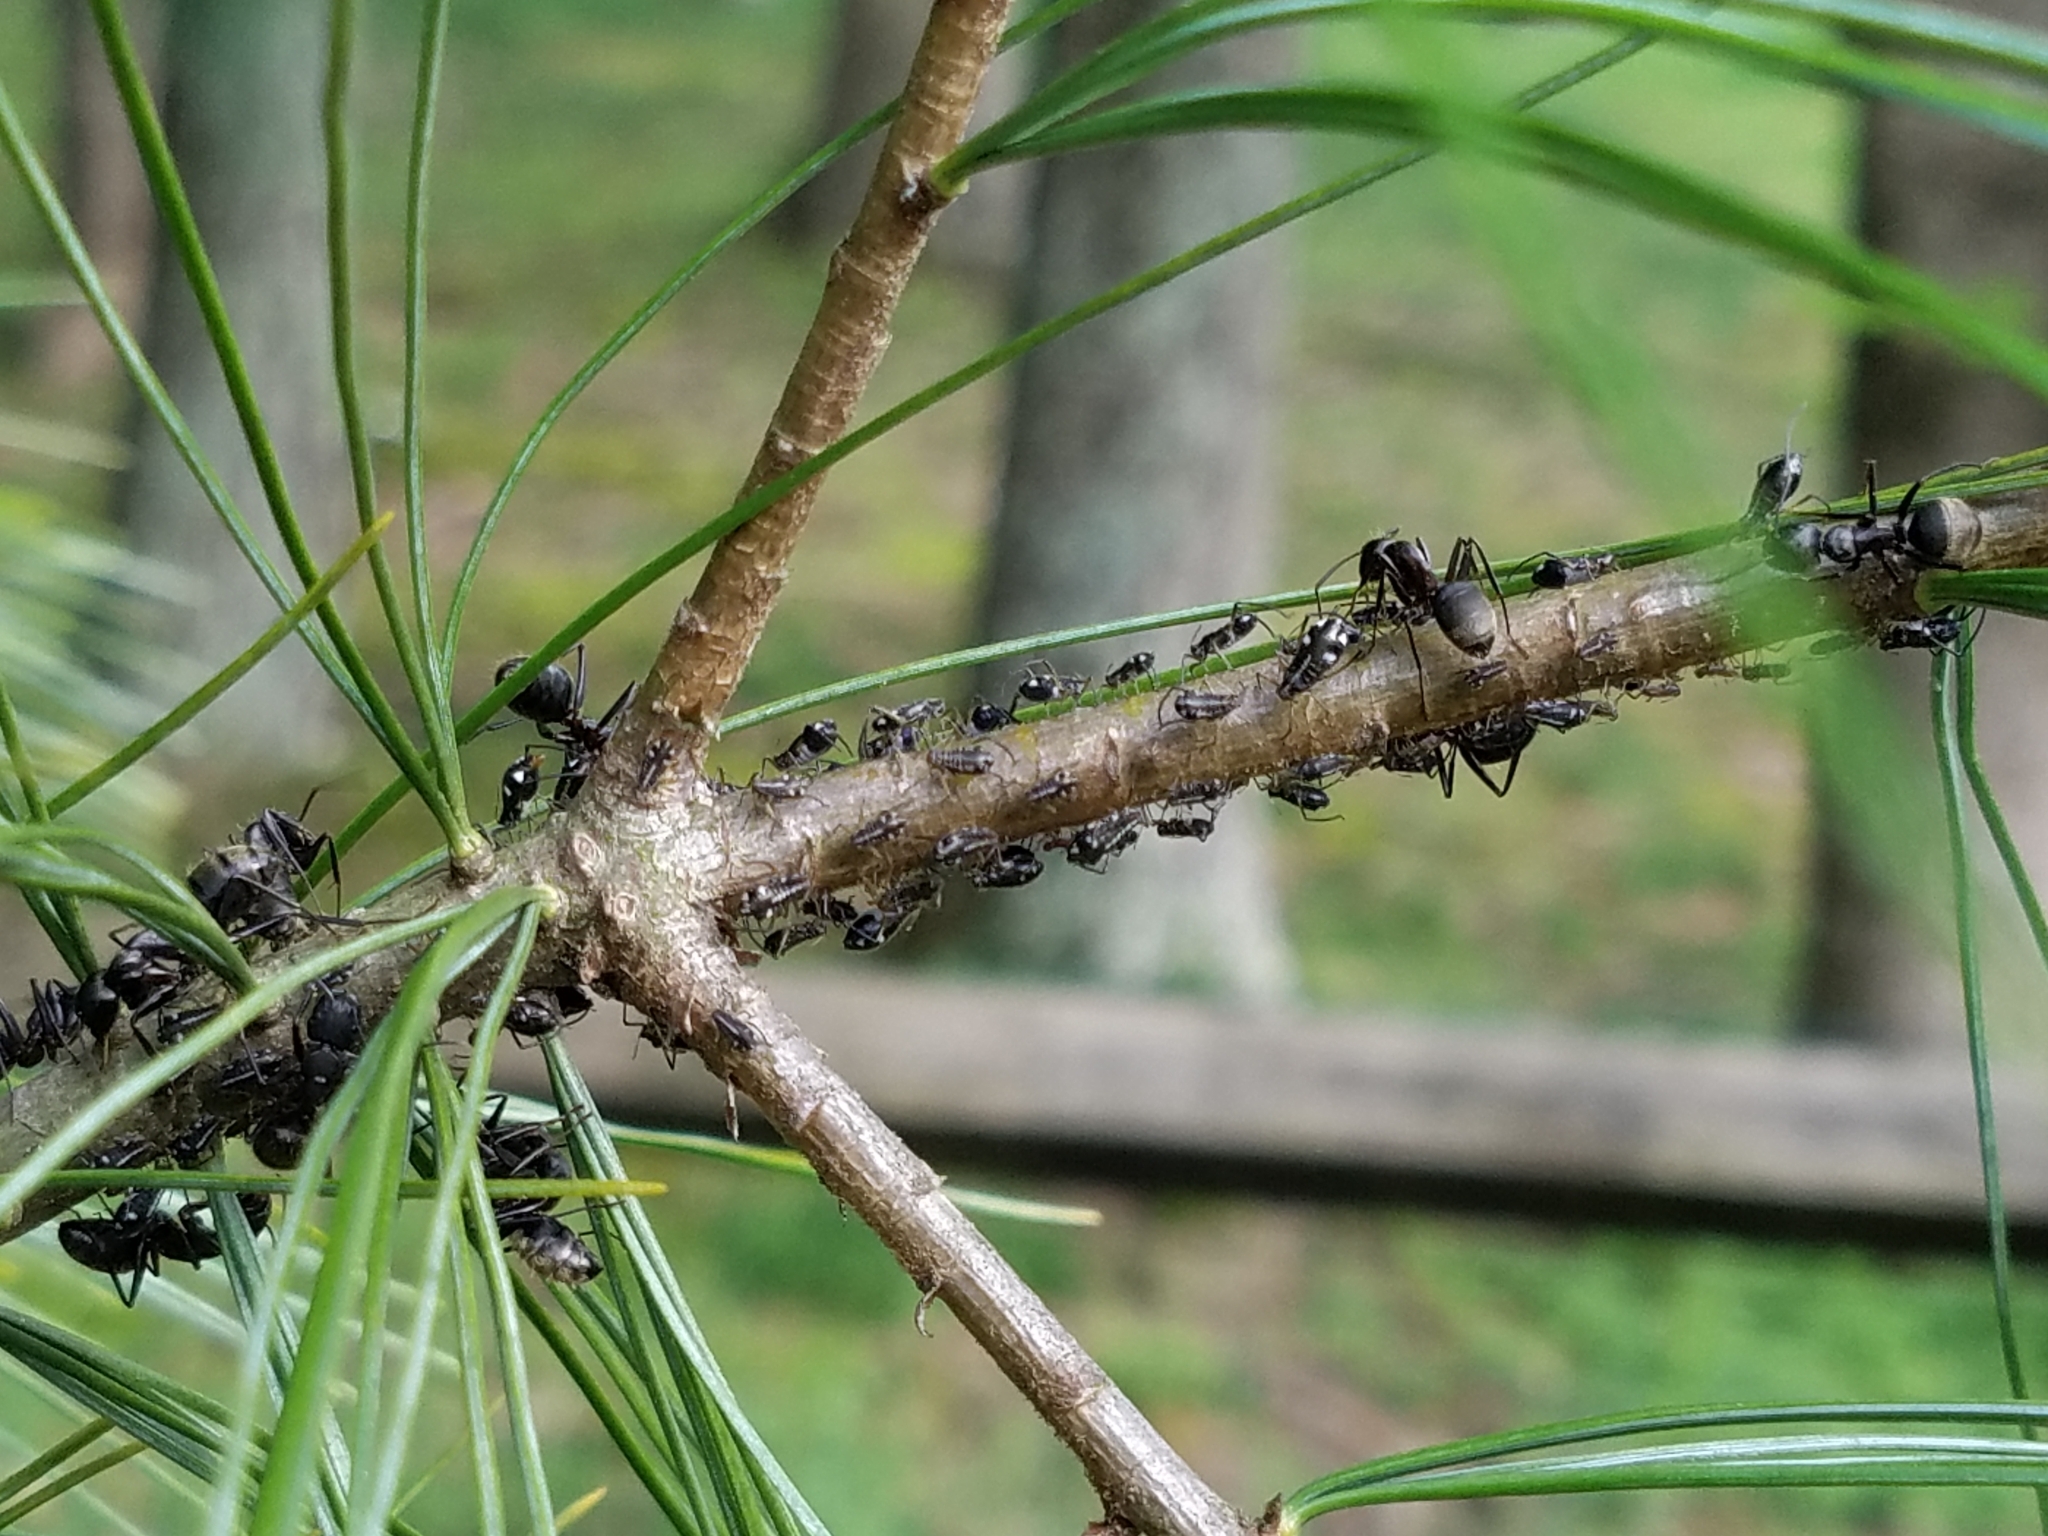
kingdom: Animalia
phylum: Arthropoda
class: Insecta
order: Hemiptera
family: Aphididae
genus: Cinara
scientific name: Cinara strobi
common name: White pine aphid
